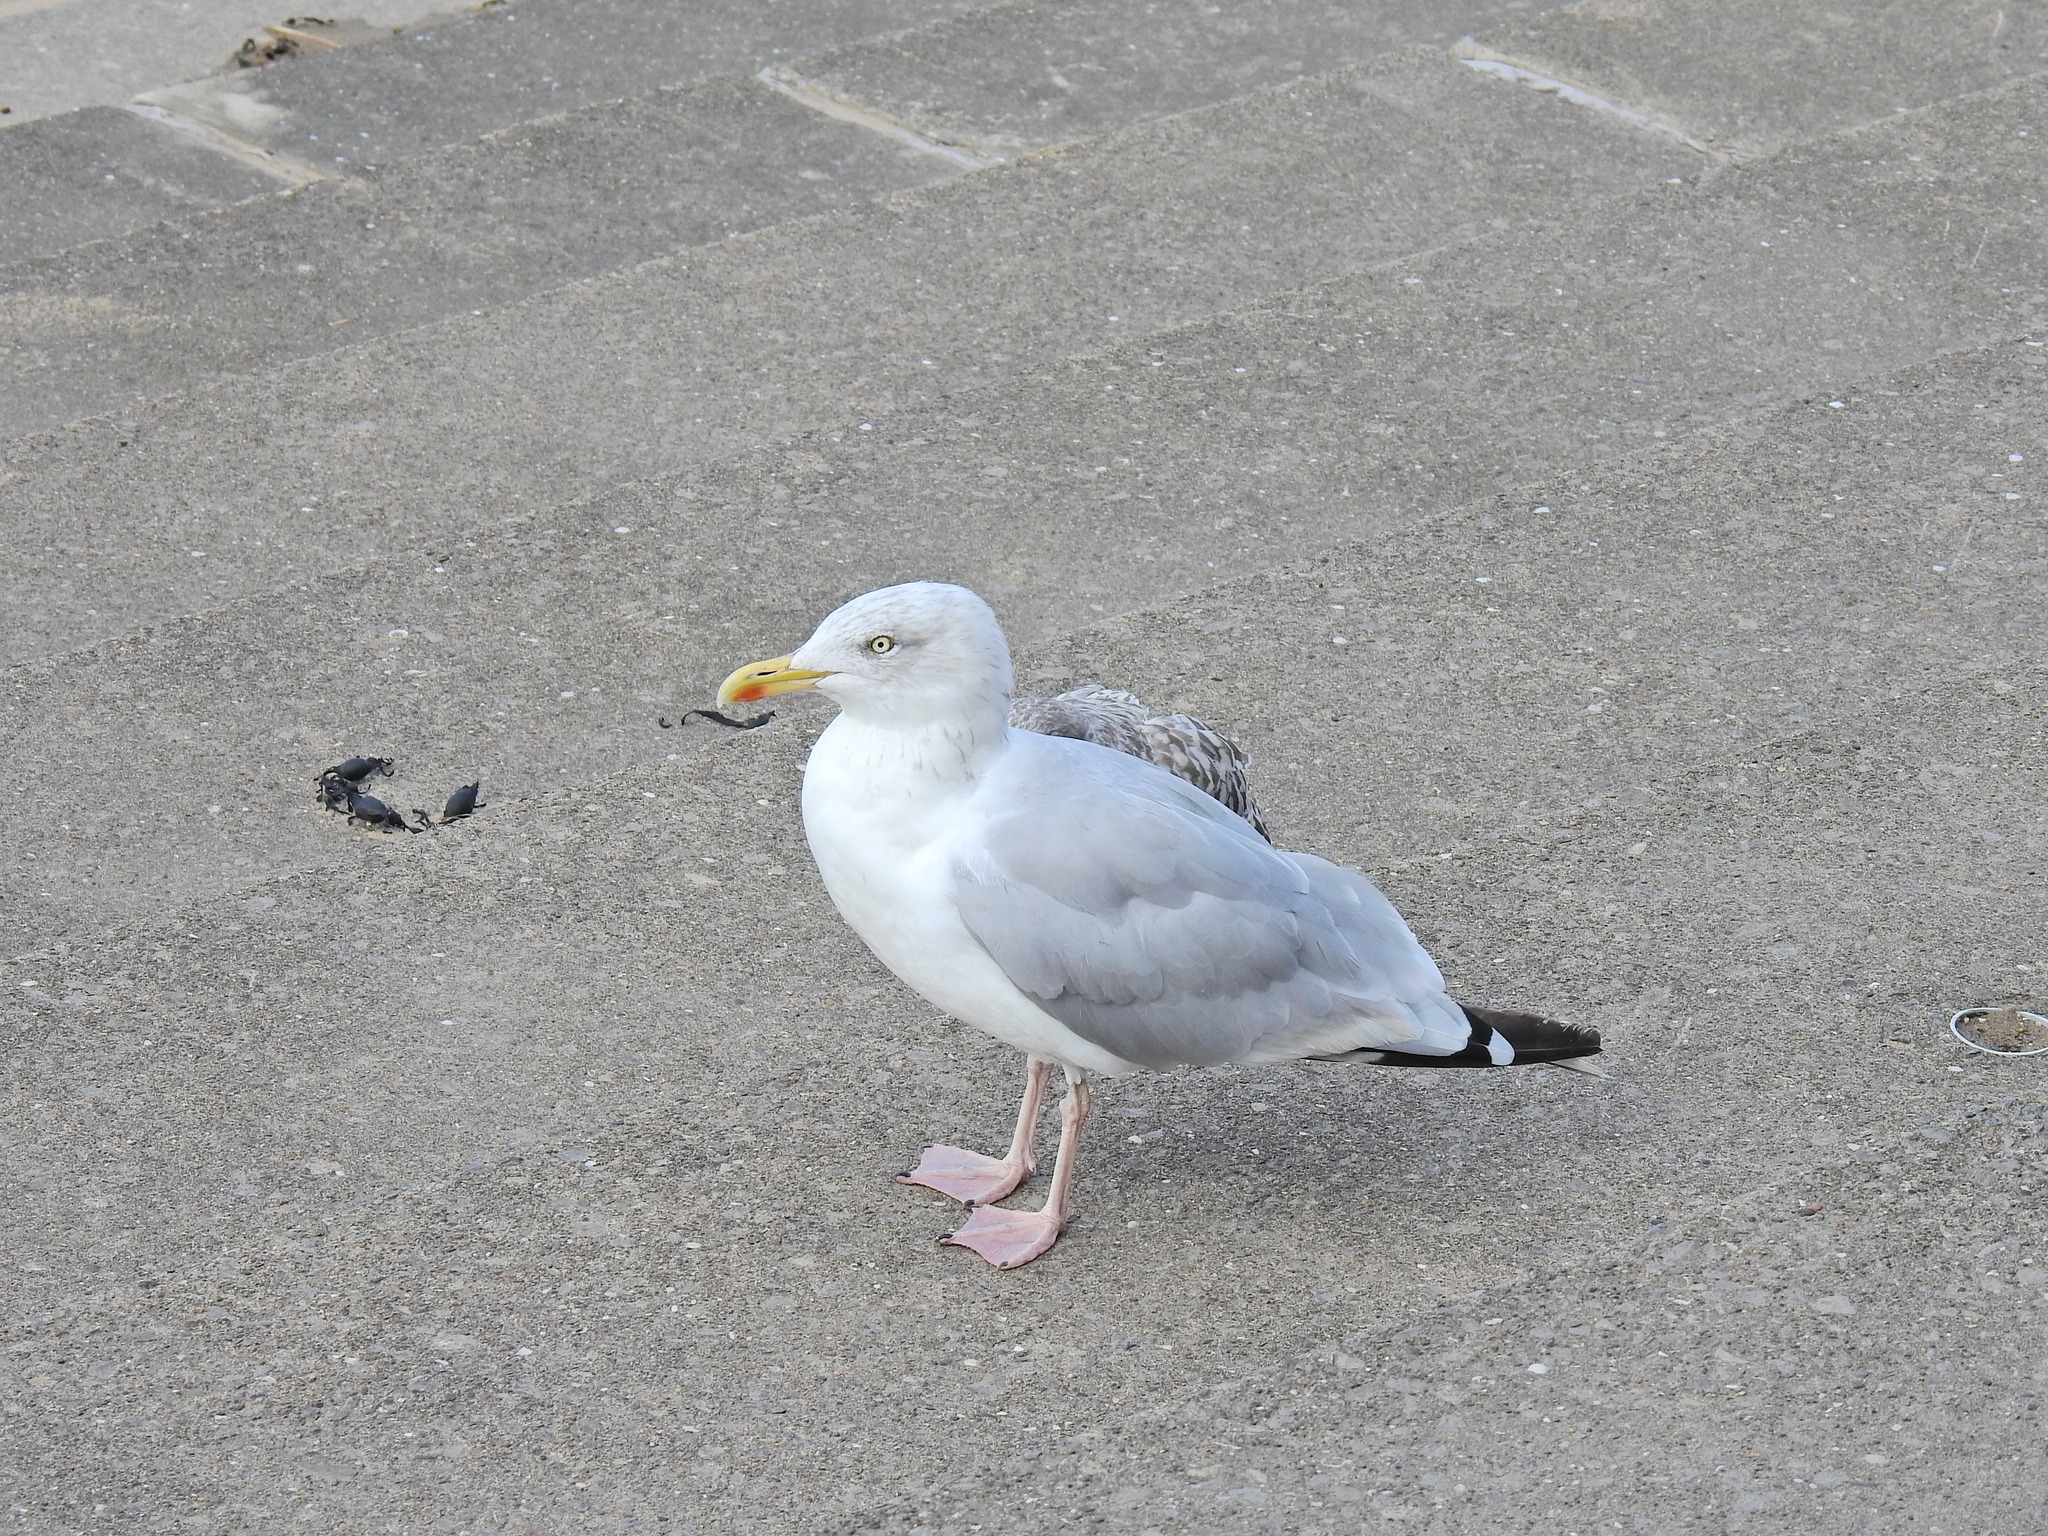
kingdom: Animalia
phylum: Chordata
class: Aves
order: Charadriiformes
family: Laridae
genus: Larus
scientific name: Larus argentatus
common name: Herring gull
